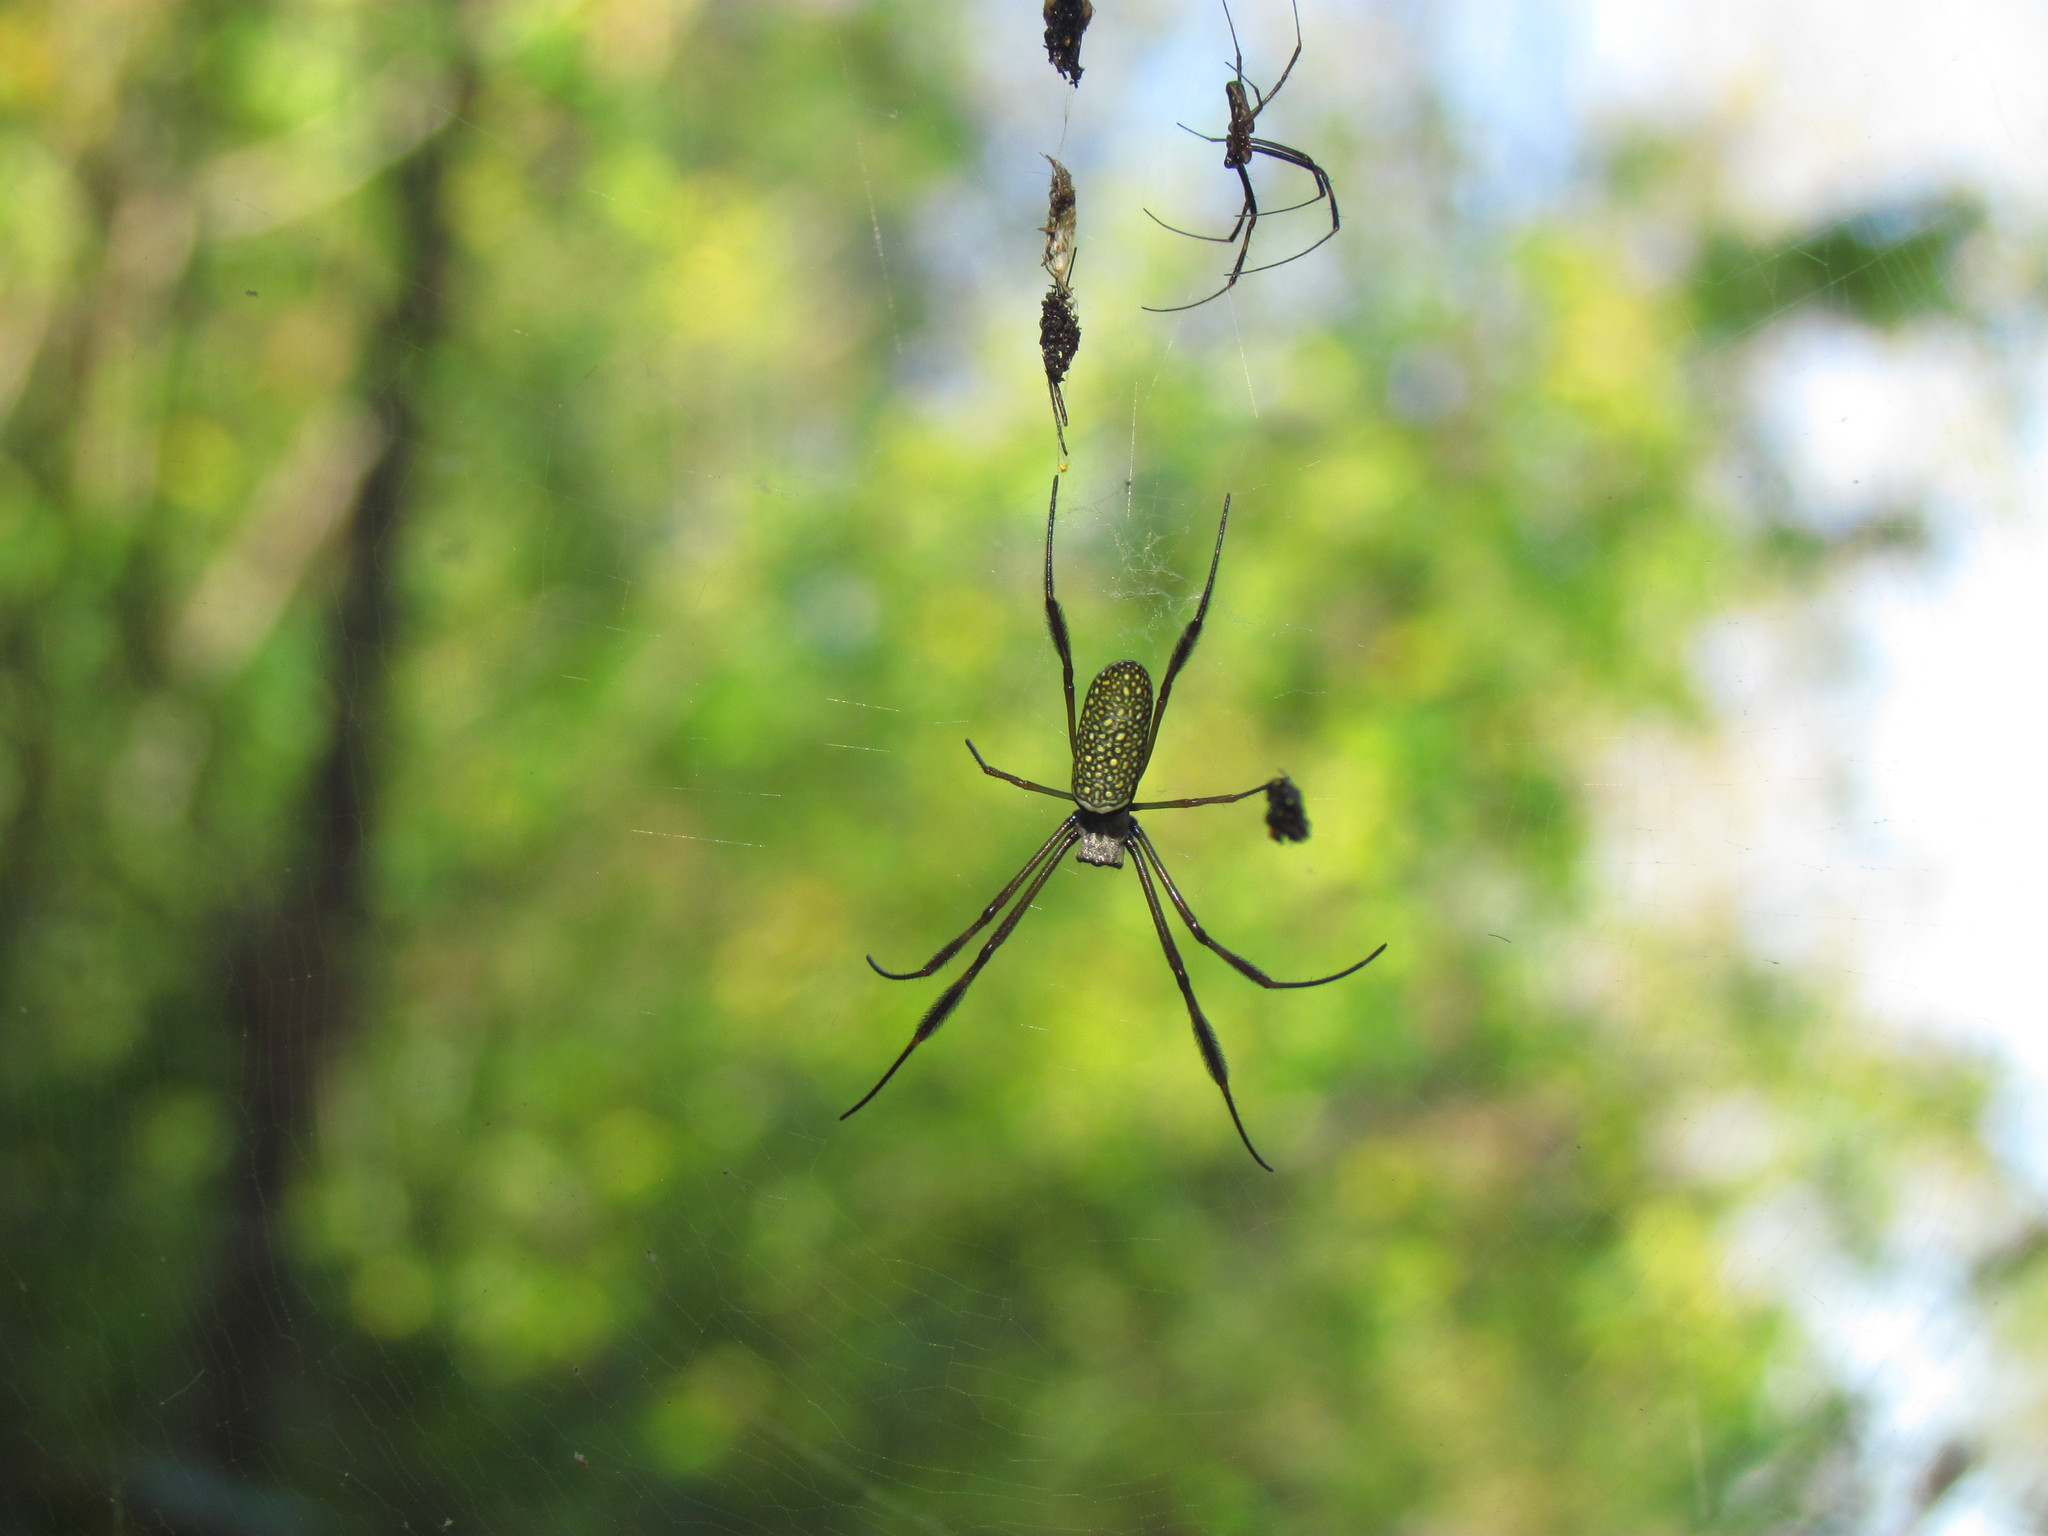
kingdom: Animalia
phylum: Arthropoda
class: Arachnida
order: Araneae
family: Araneidae
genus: Trichonephila
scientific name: Trichonephila clavipes
